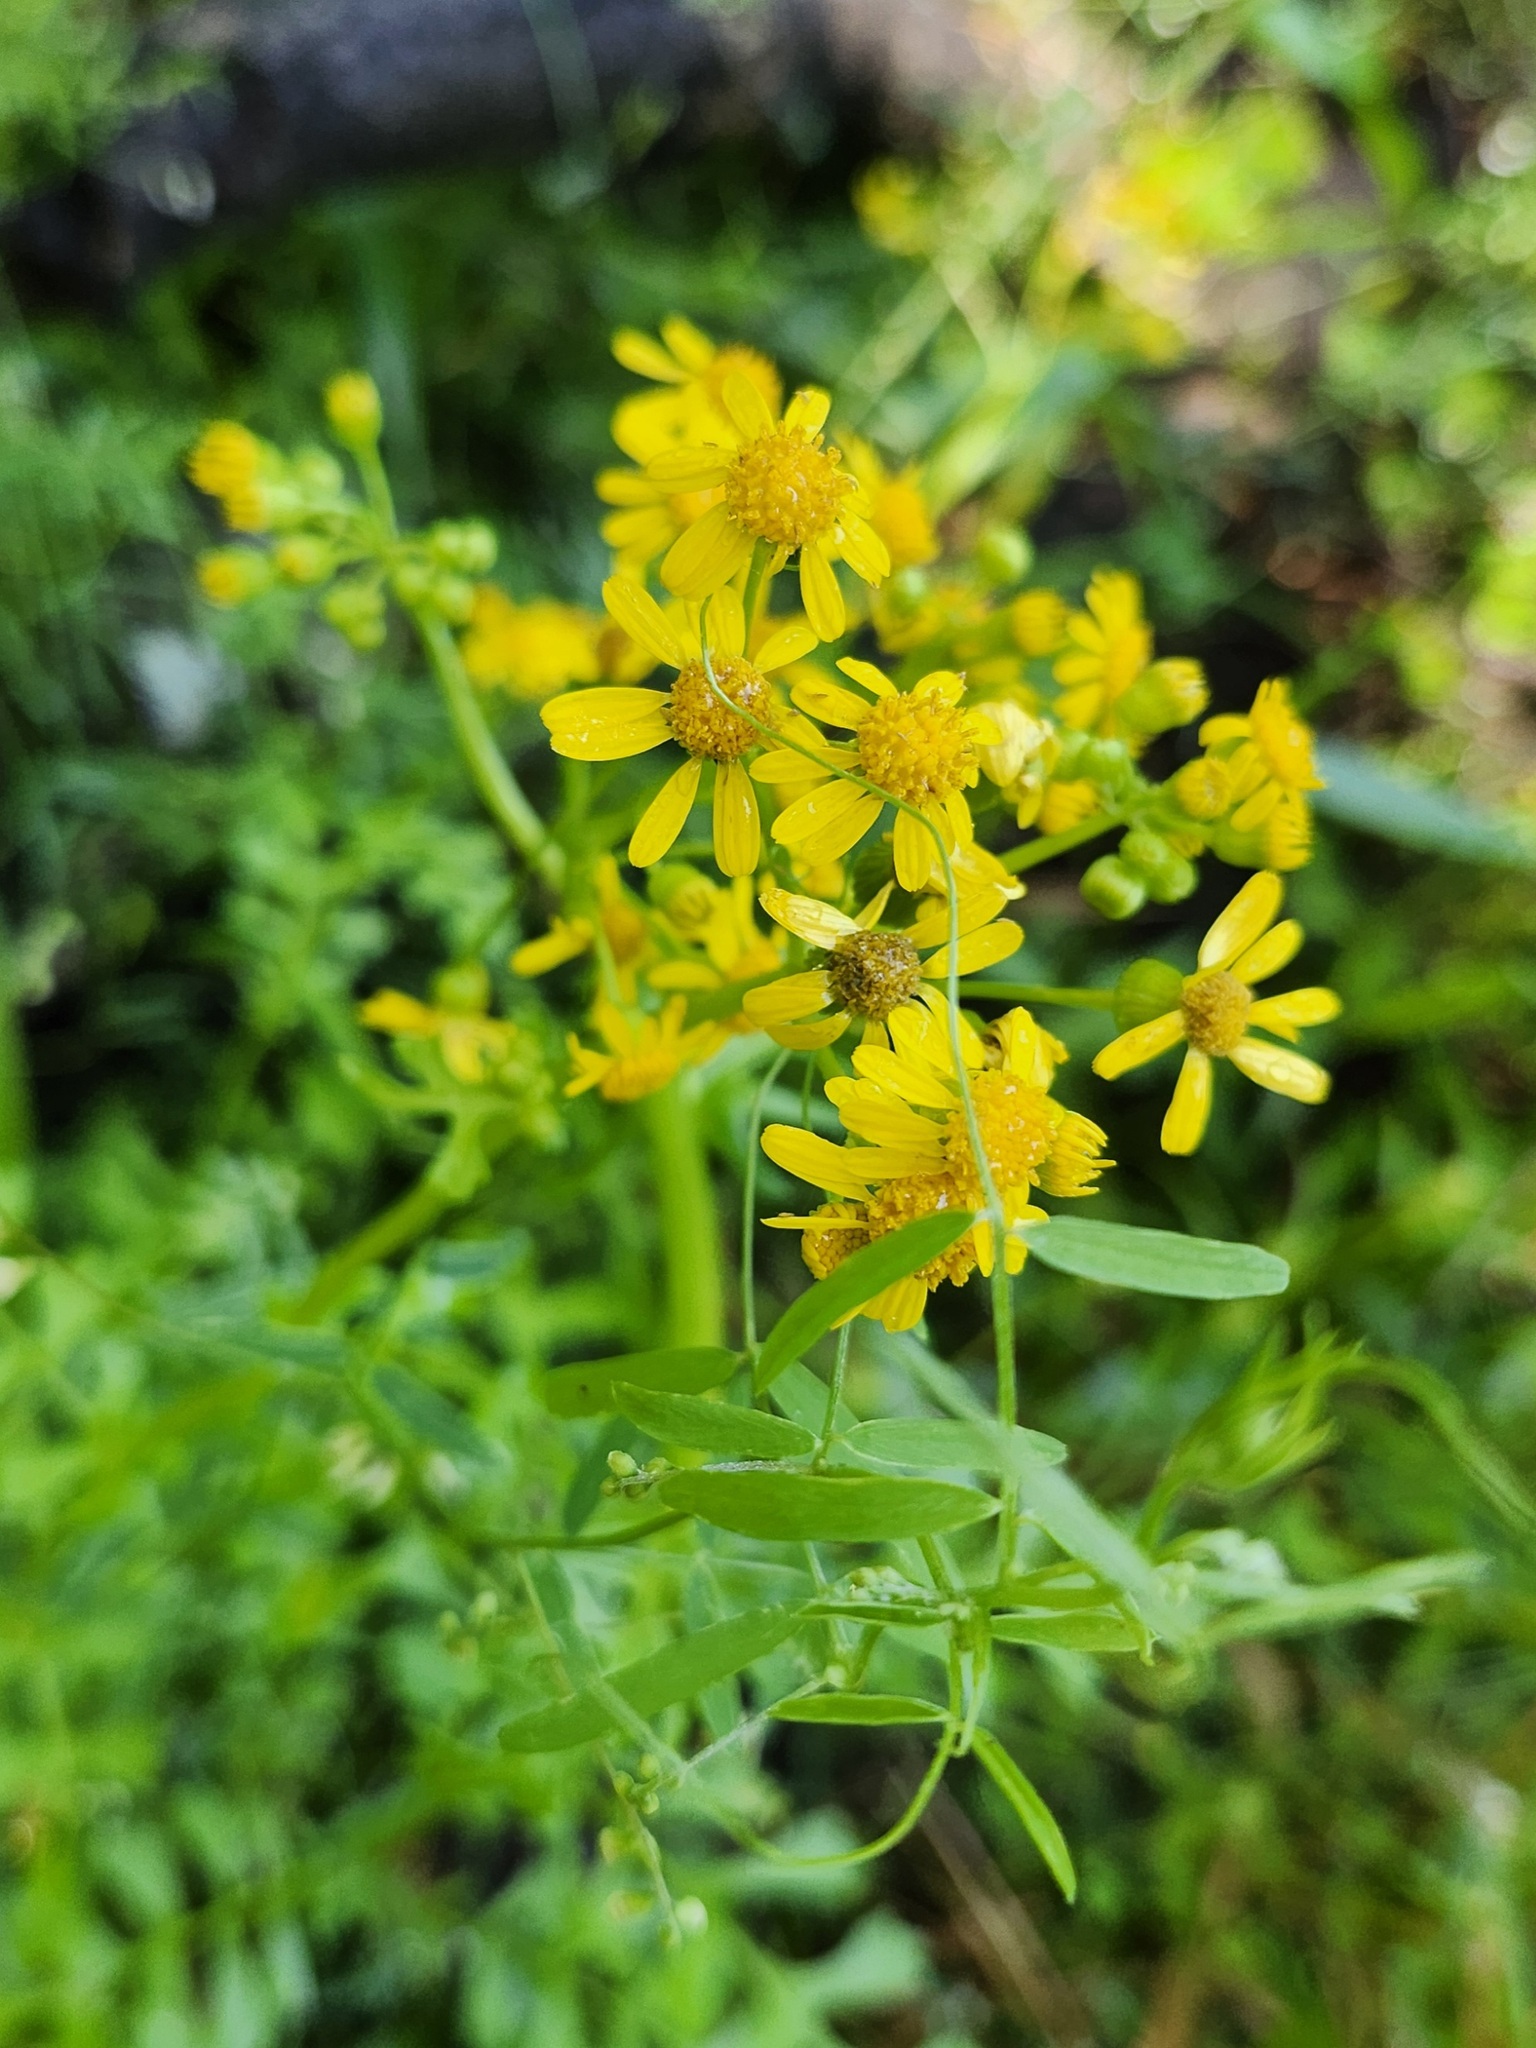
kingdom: Plantae
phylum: Tracheophyta
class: Magnoliopsida
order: Asterales
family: Asteraceae
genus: Packera
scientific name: Packera glabella
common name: Butterweed
